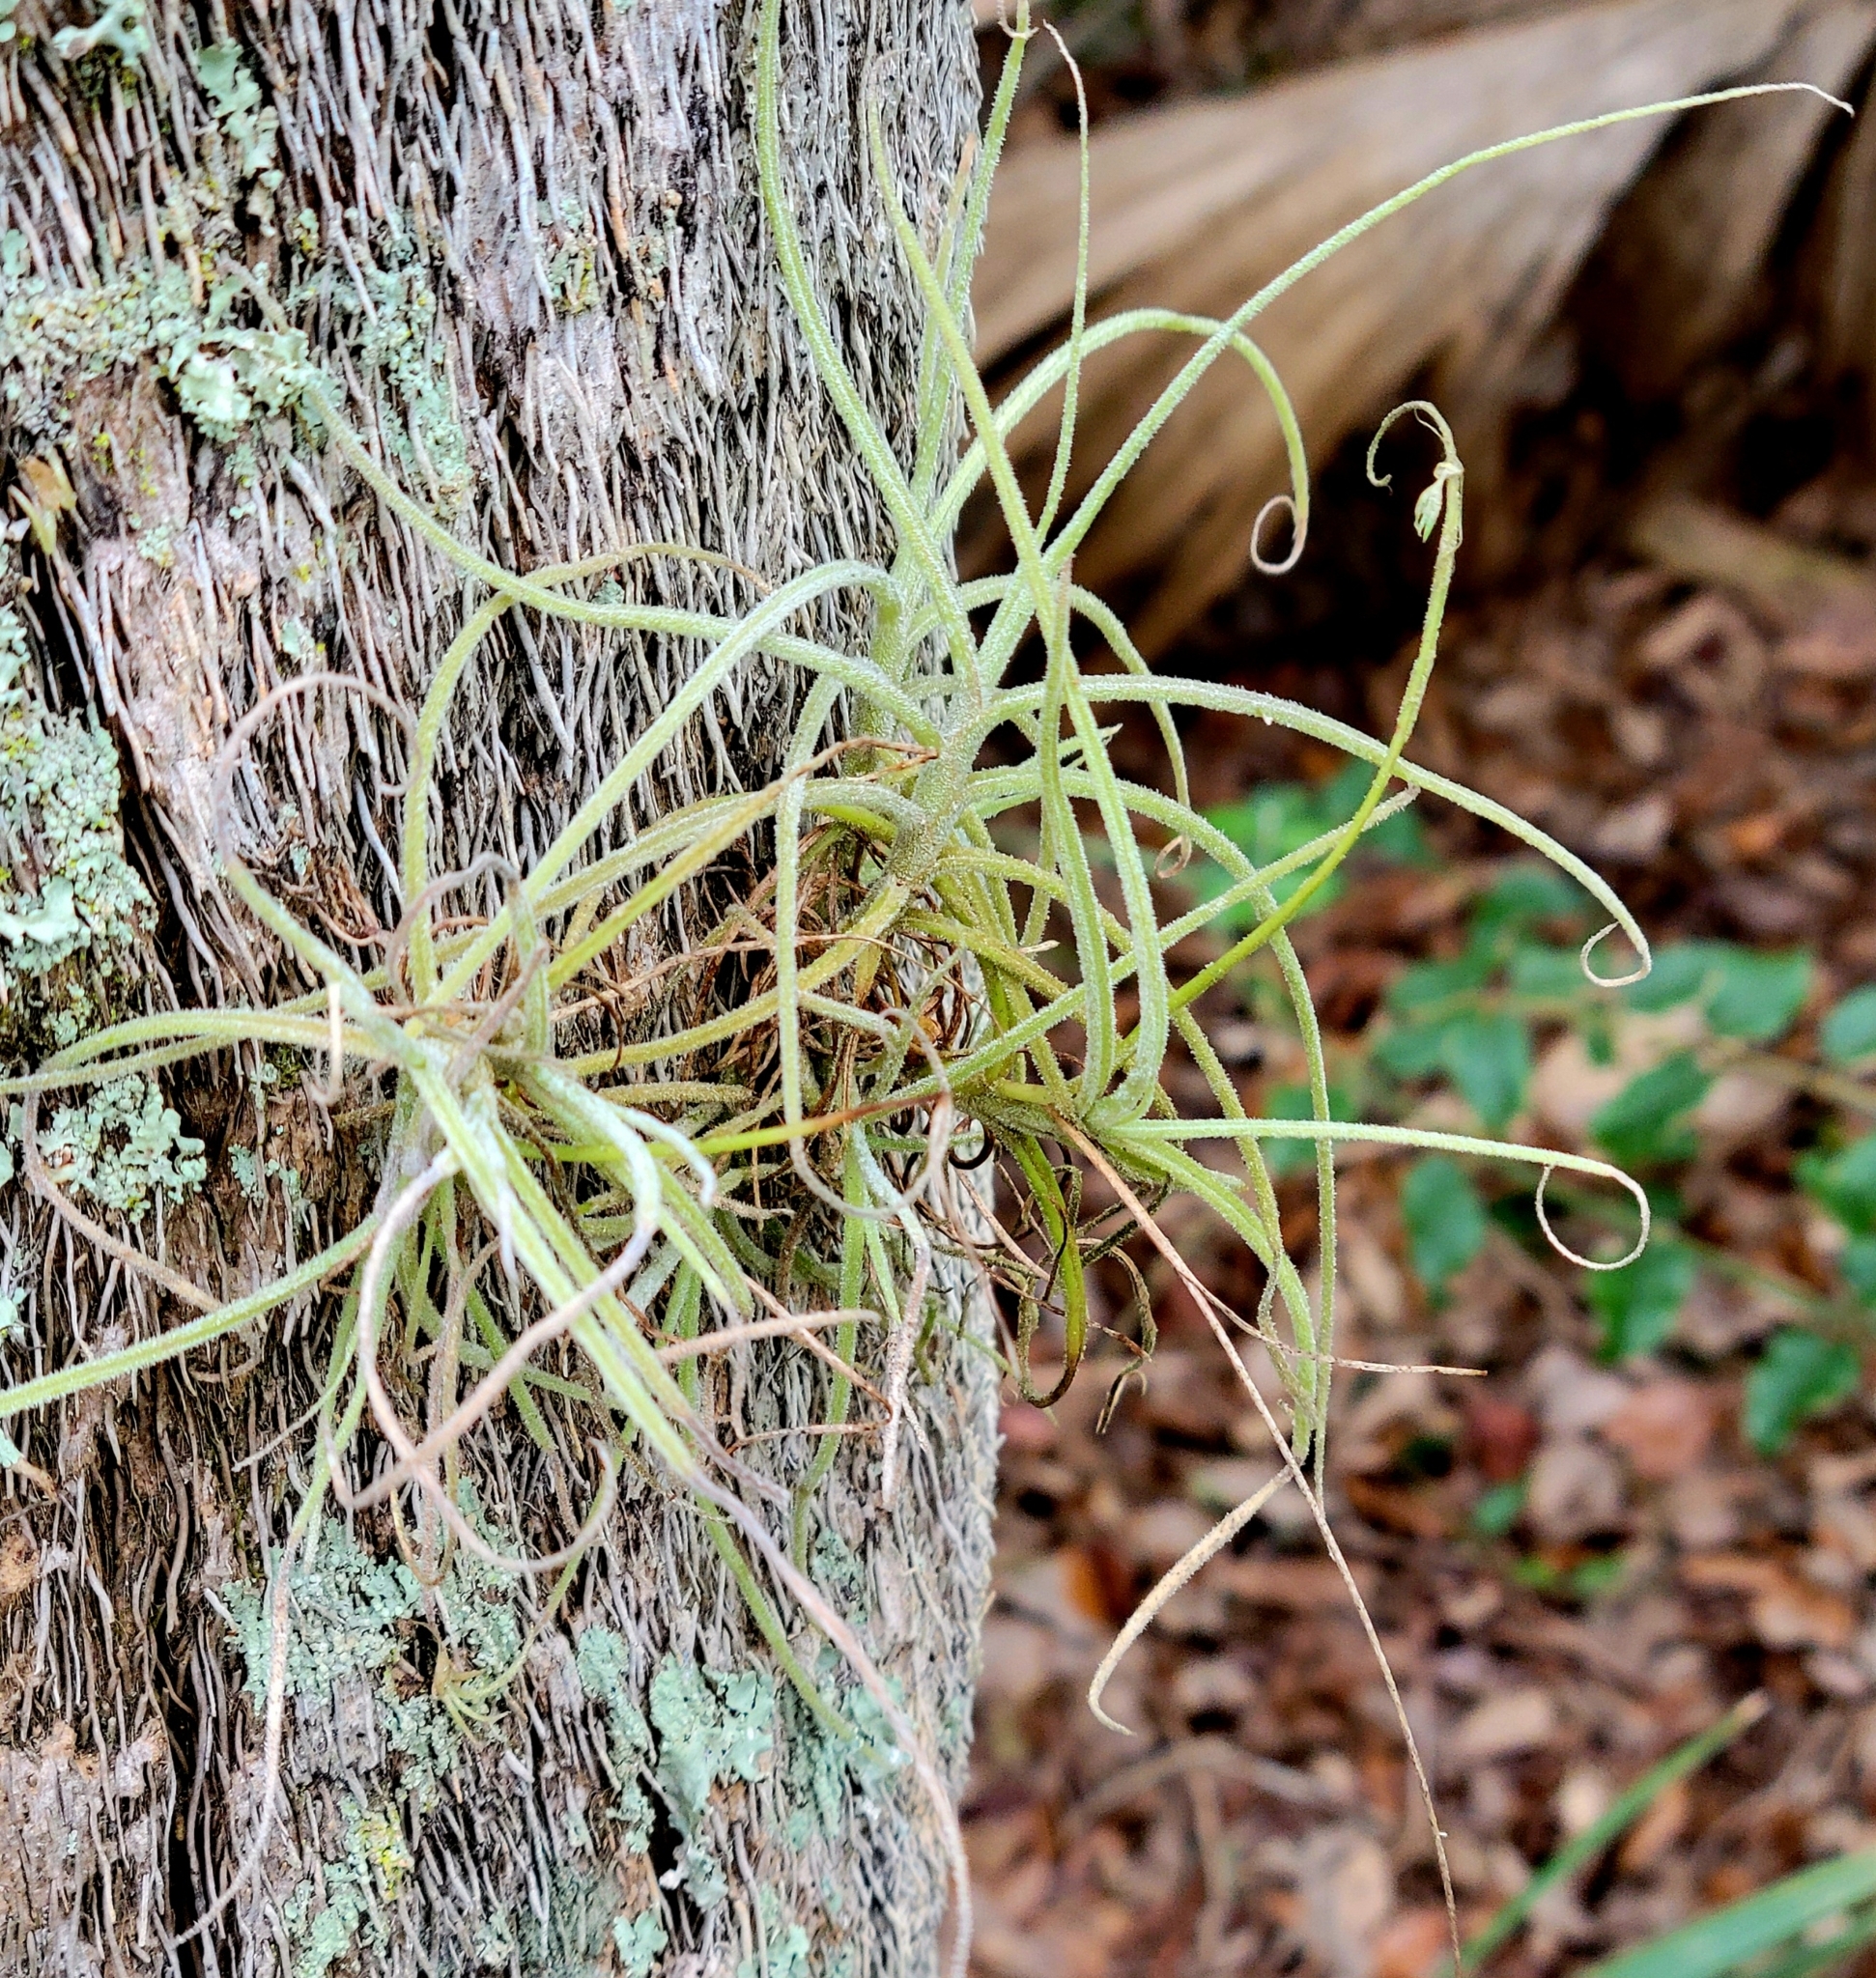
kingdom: Plantae
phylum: Tracheophyta
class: Liliopsida
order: Poales
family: Bromeliaceae
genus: Tillandsia
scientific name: Tillandsia recurvata
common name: Small ballmoss
